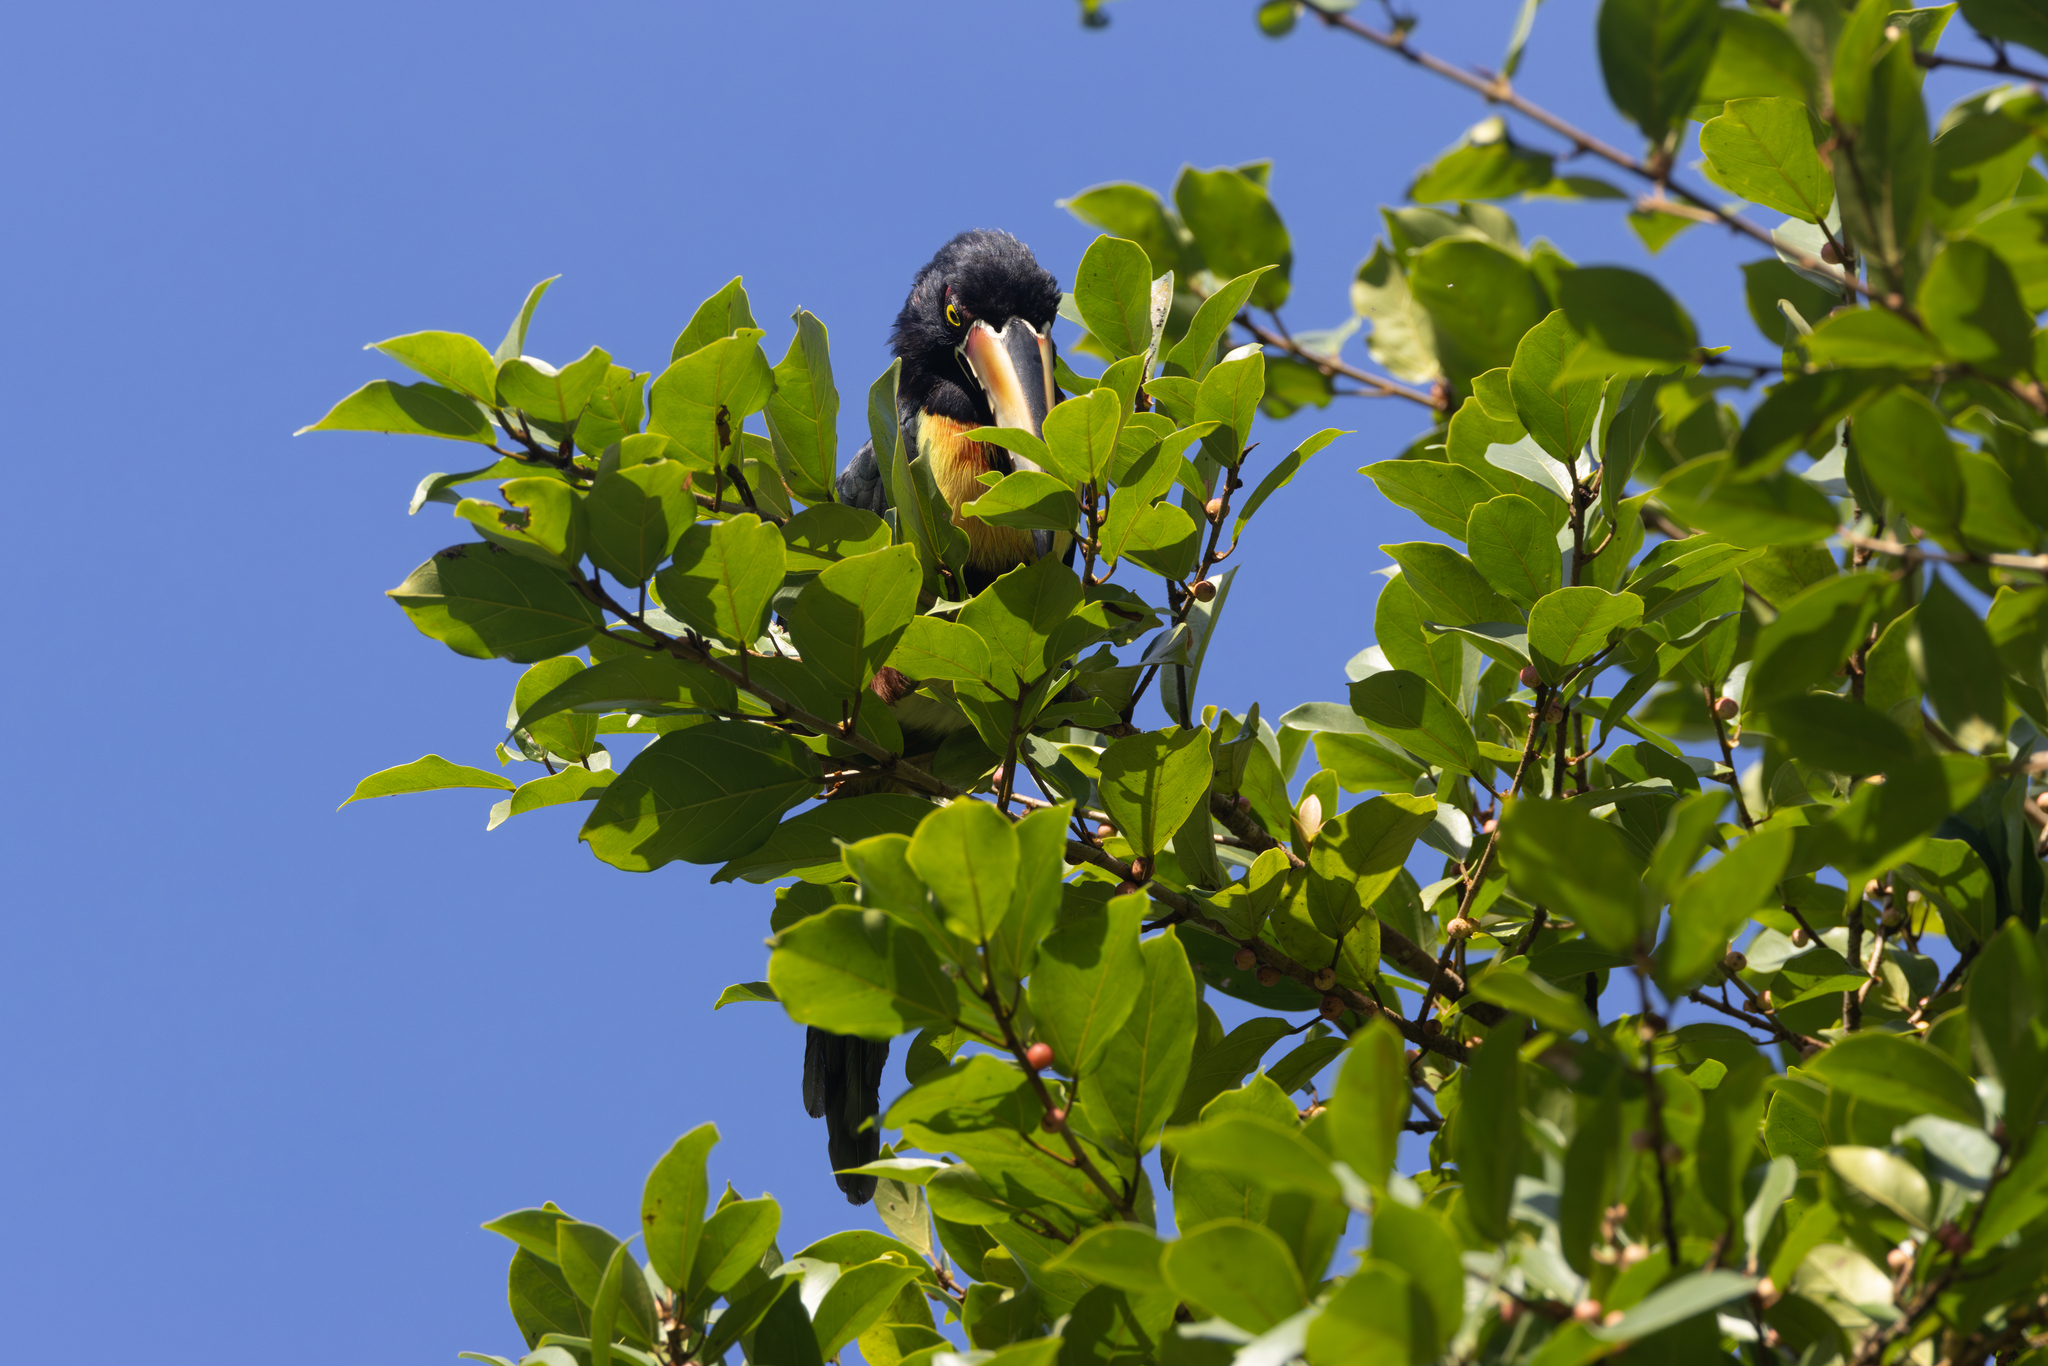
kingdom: Animalia
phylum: Chordata
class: Aves
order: Piciformes
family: Ramphastidae
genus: Pteroglossus
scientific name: Pteroglossus torquatus
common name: Collared aracari
